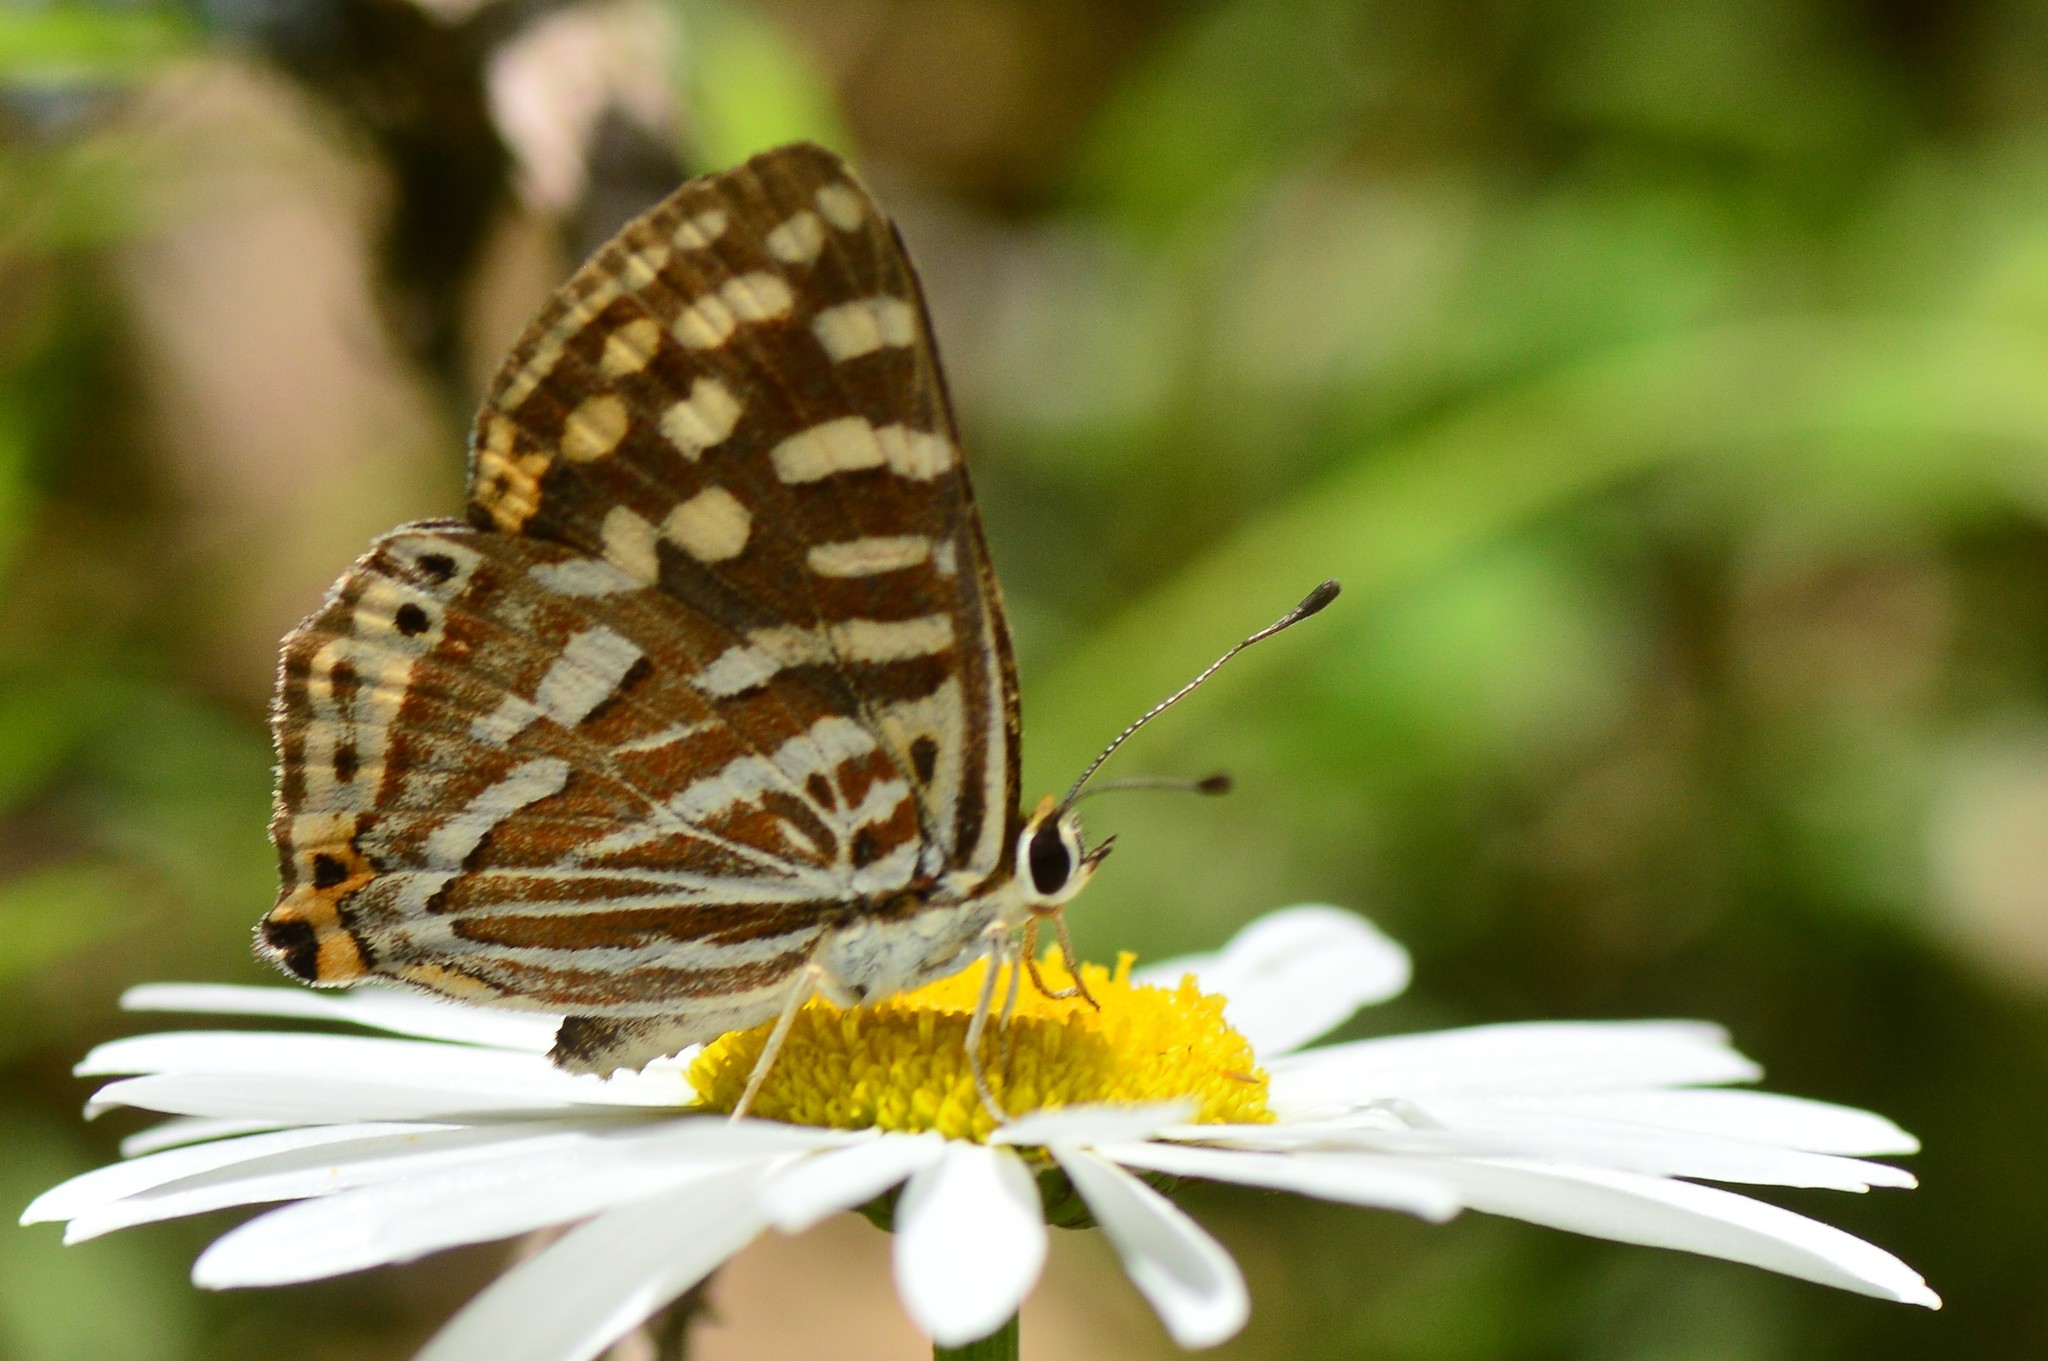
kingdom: Animalia
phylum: Arthropoda
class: Insecta
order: Lepidoptera
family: Lycaenidae
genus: Dodona
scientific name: Dodona durga
